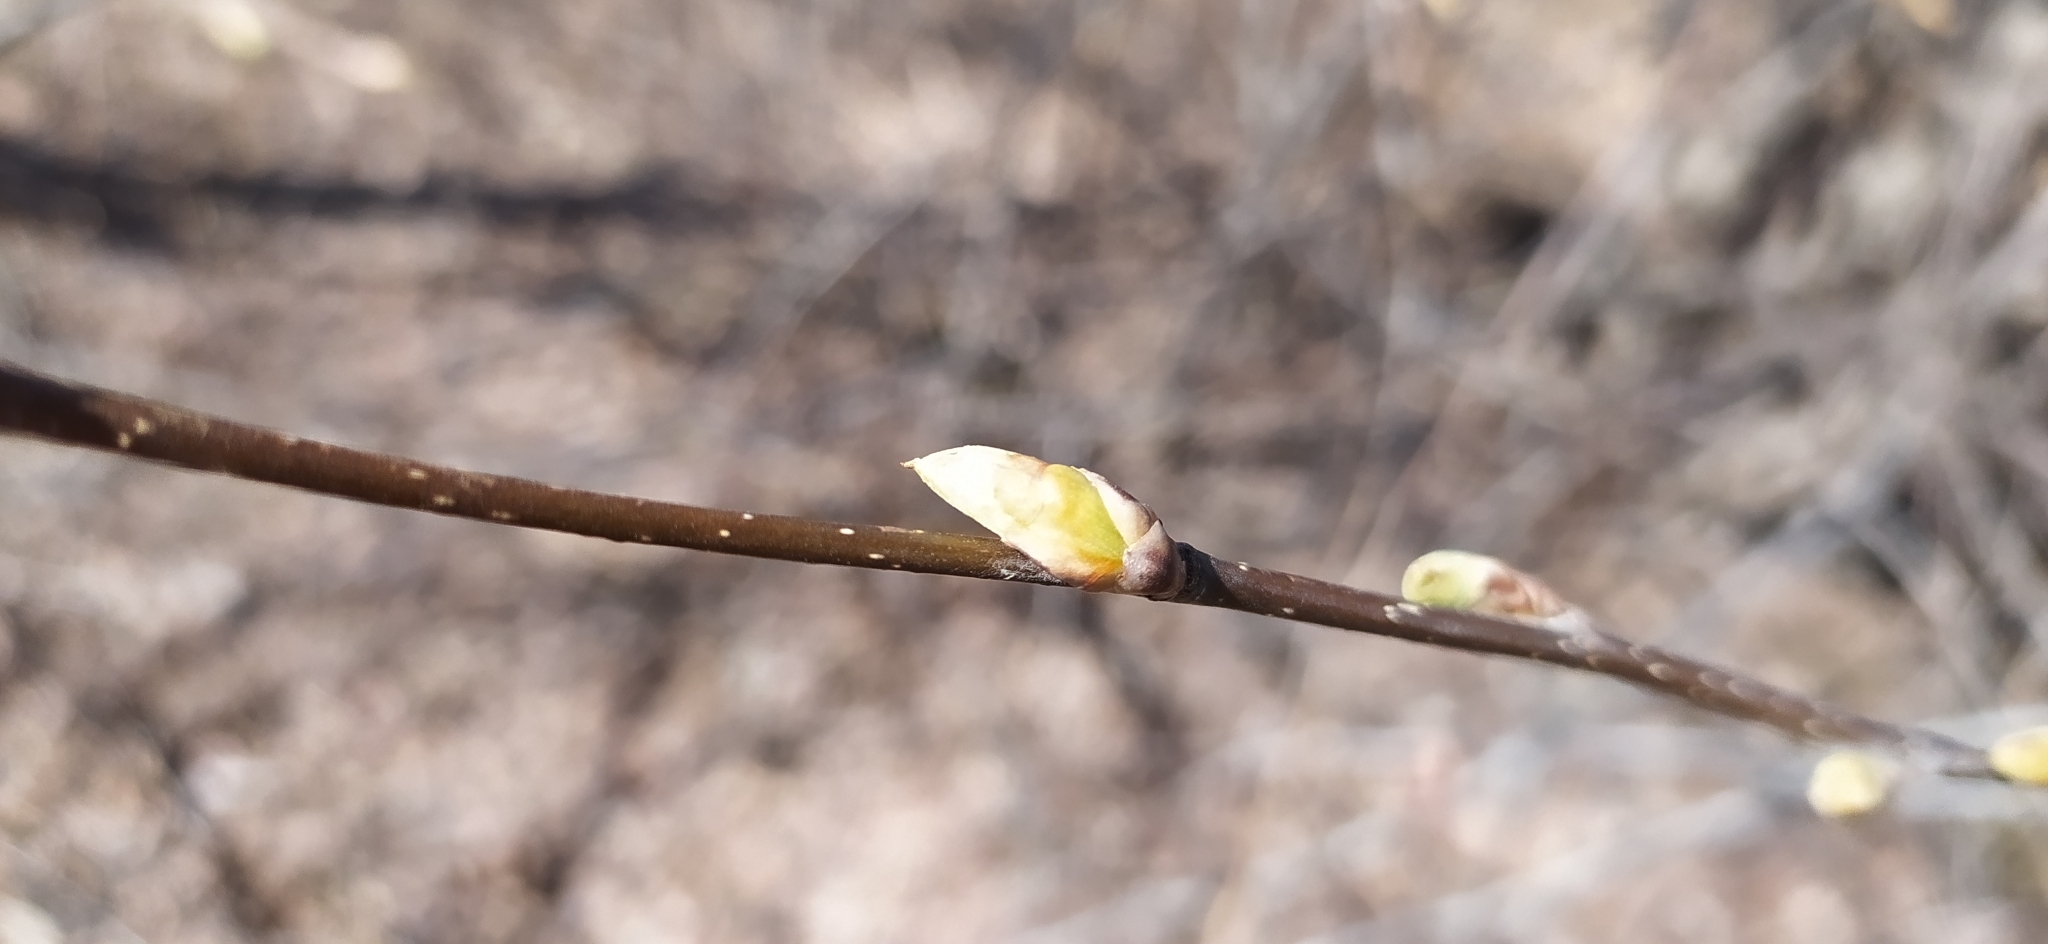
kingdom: Plantae
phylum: Tracheophyta
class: Magnoliopsida
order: Rosales
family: Rosaceae
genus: Prunus
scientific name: Prunus padus
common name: Bird cherry
